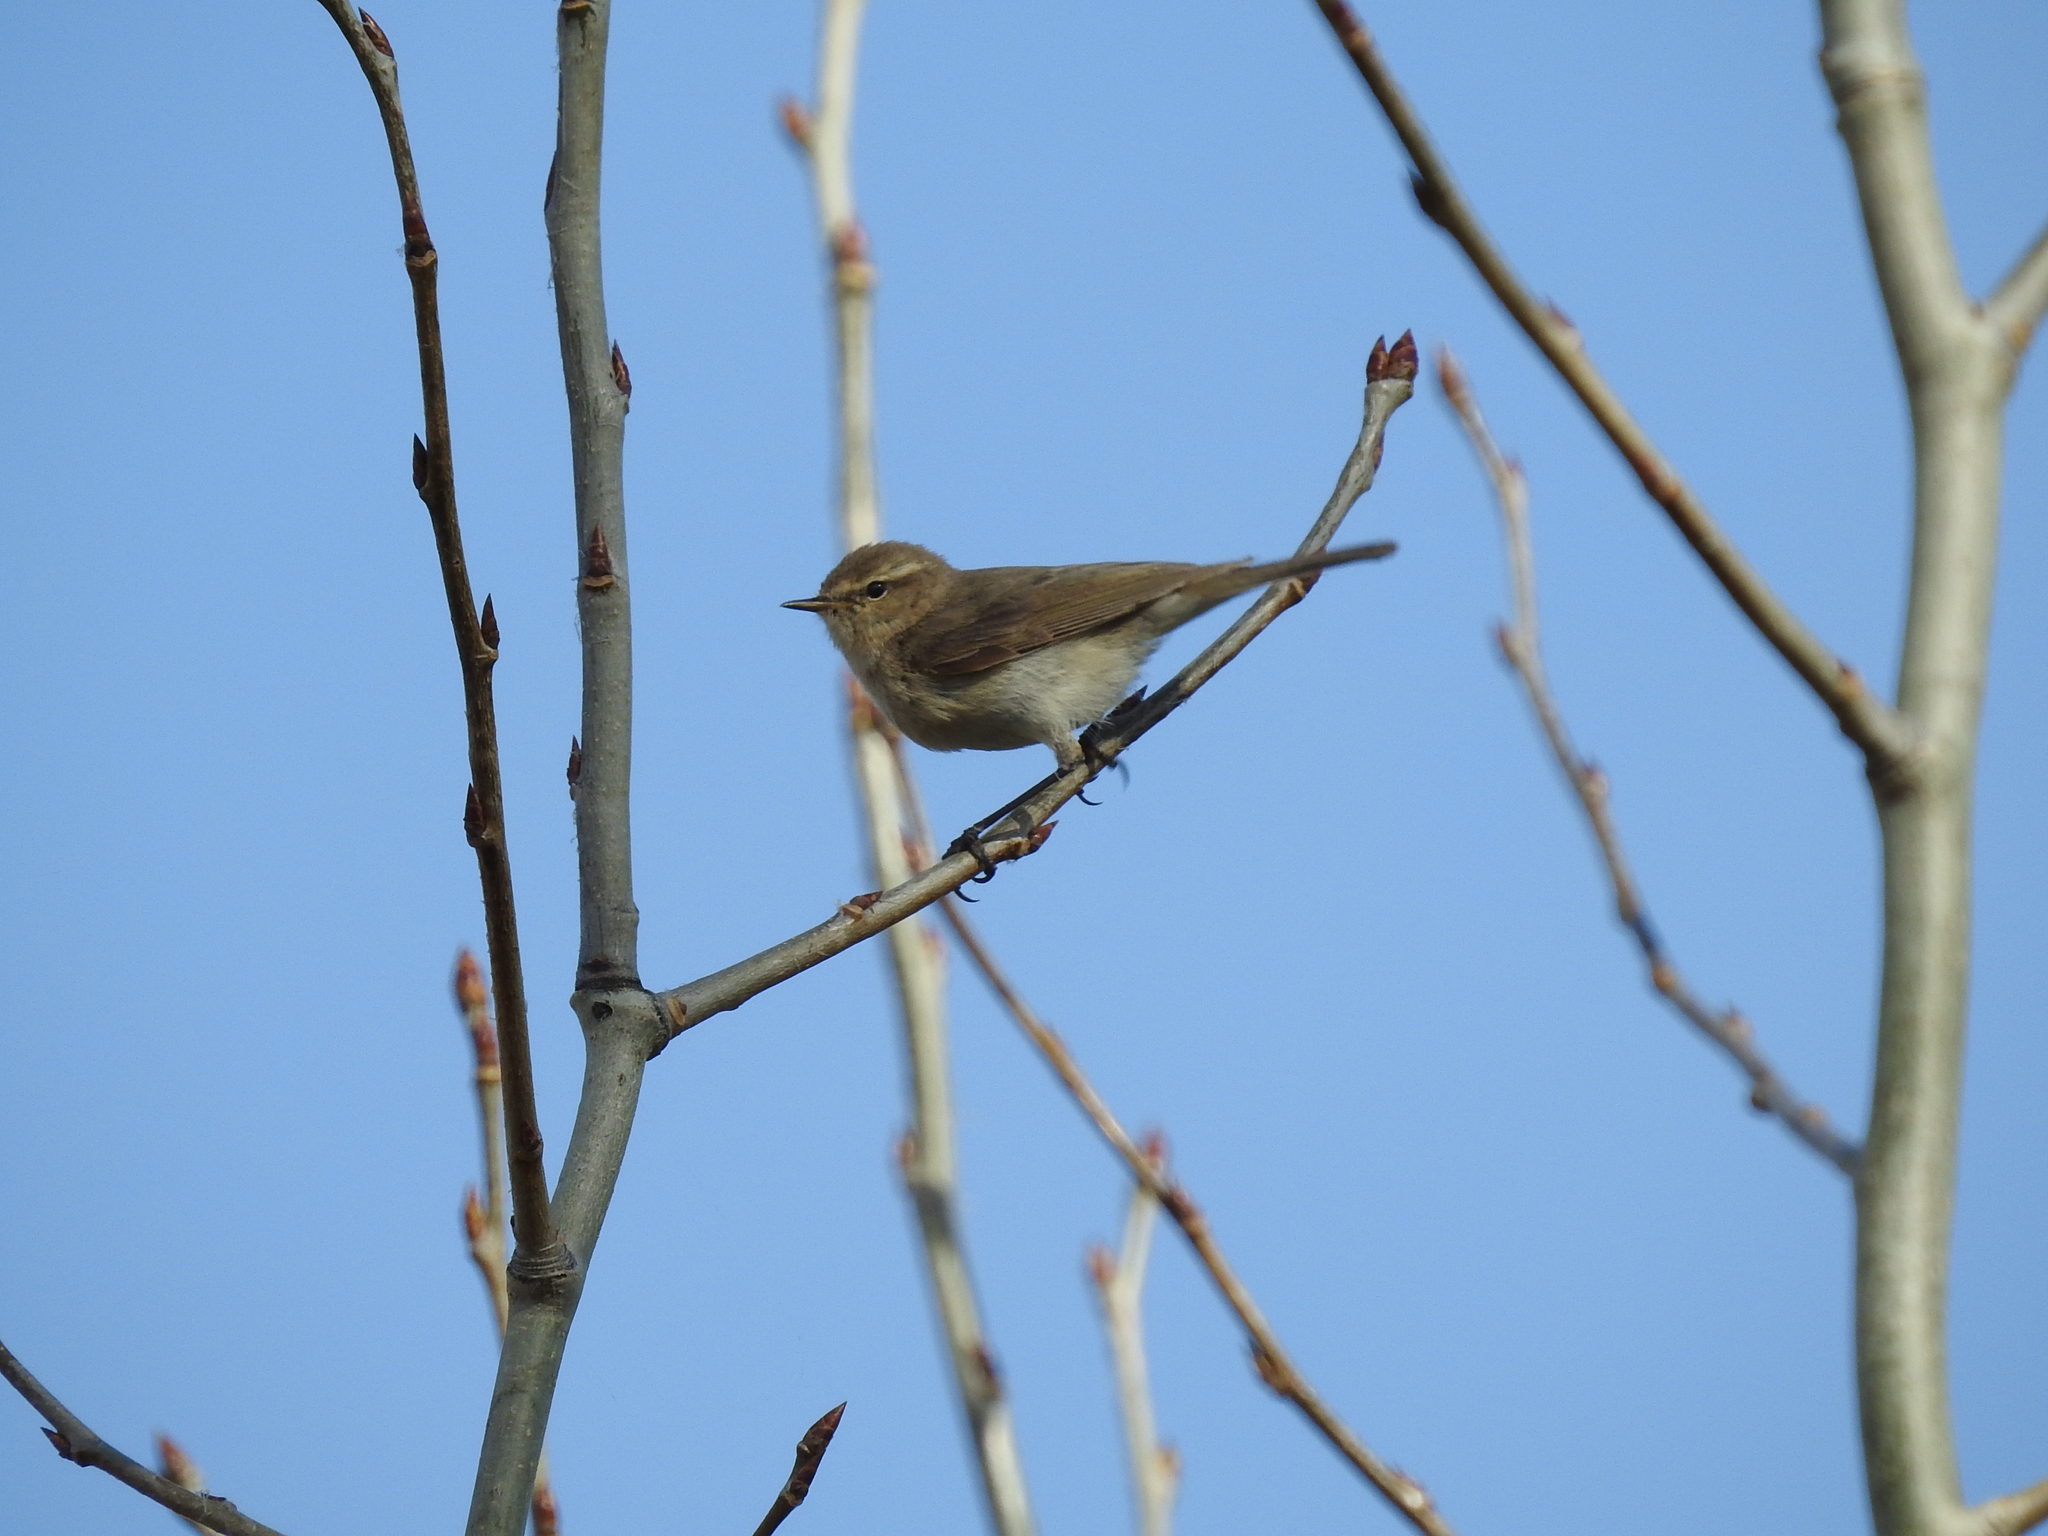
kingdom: Animalia
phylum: Chordata
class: Aves
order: Passeriformes
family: Phylloscopidae
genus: Phylloscopus
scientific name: Phylloscopus collybita
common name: Common chiffchaff
